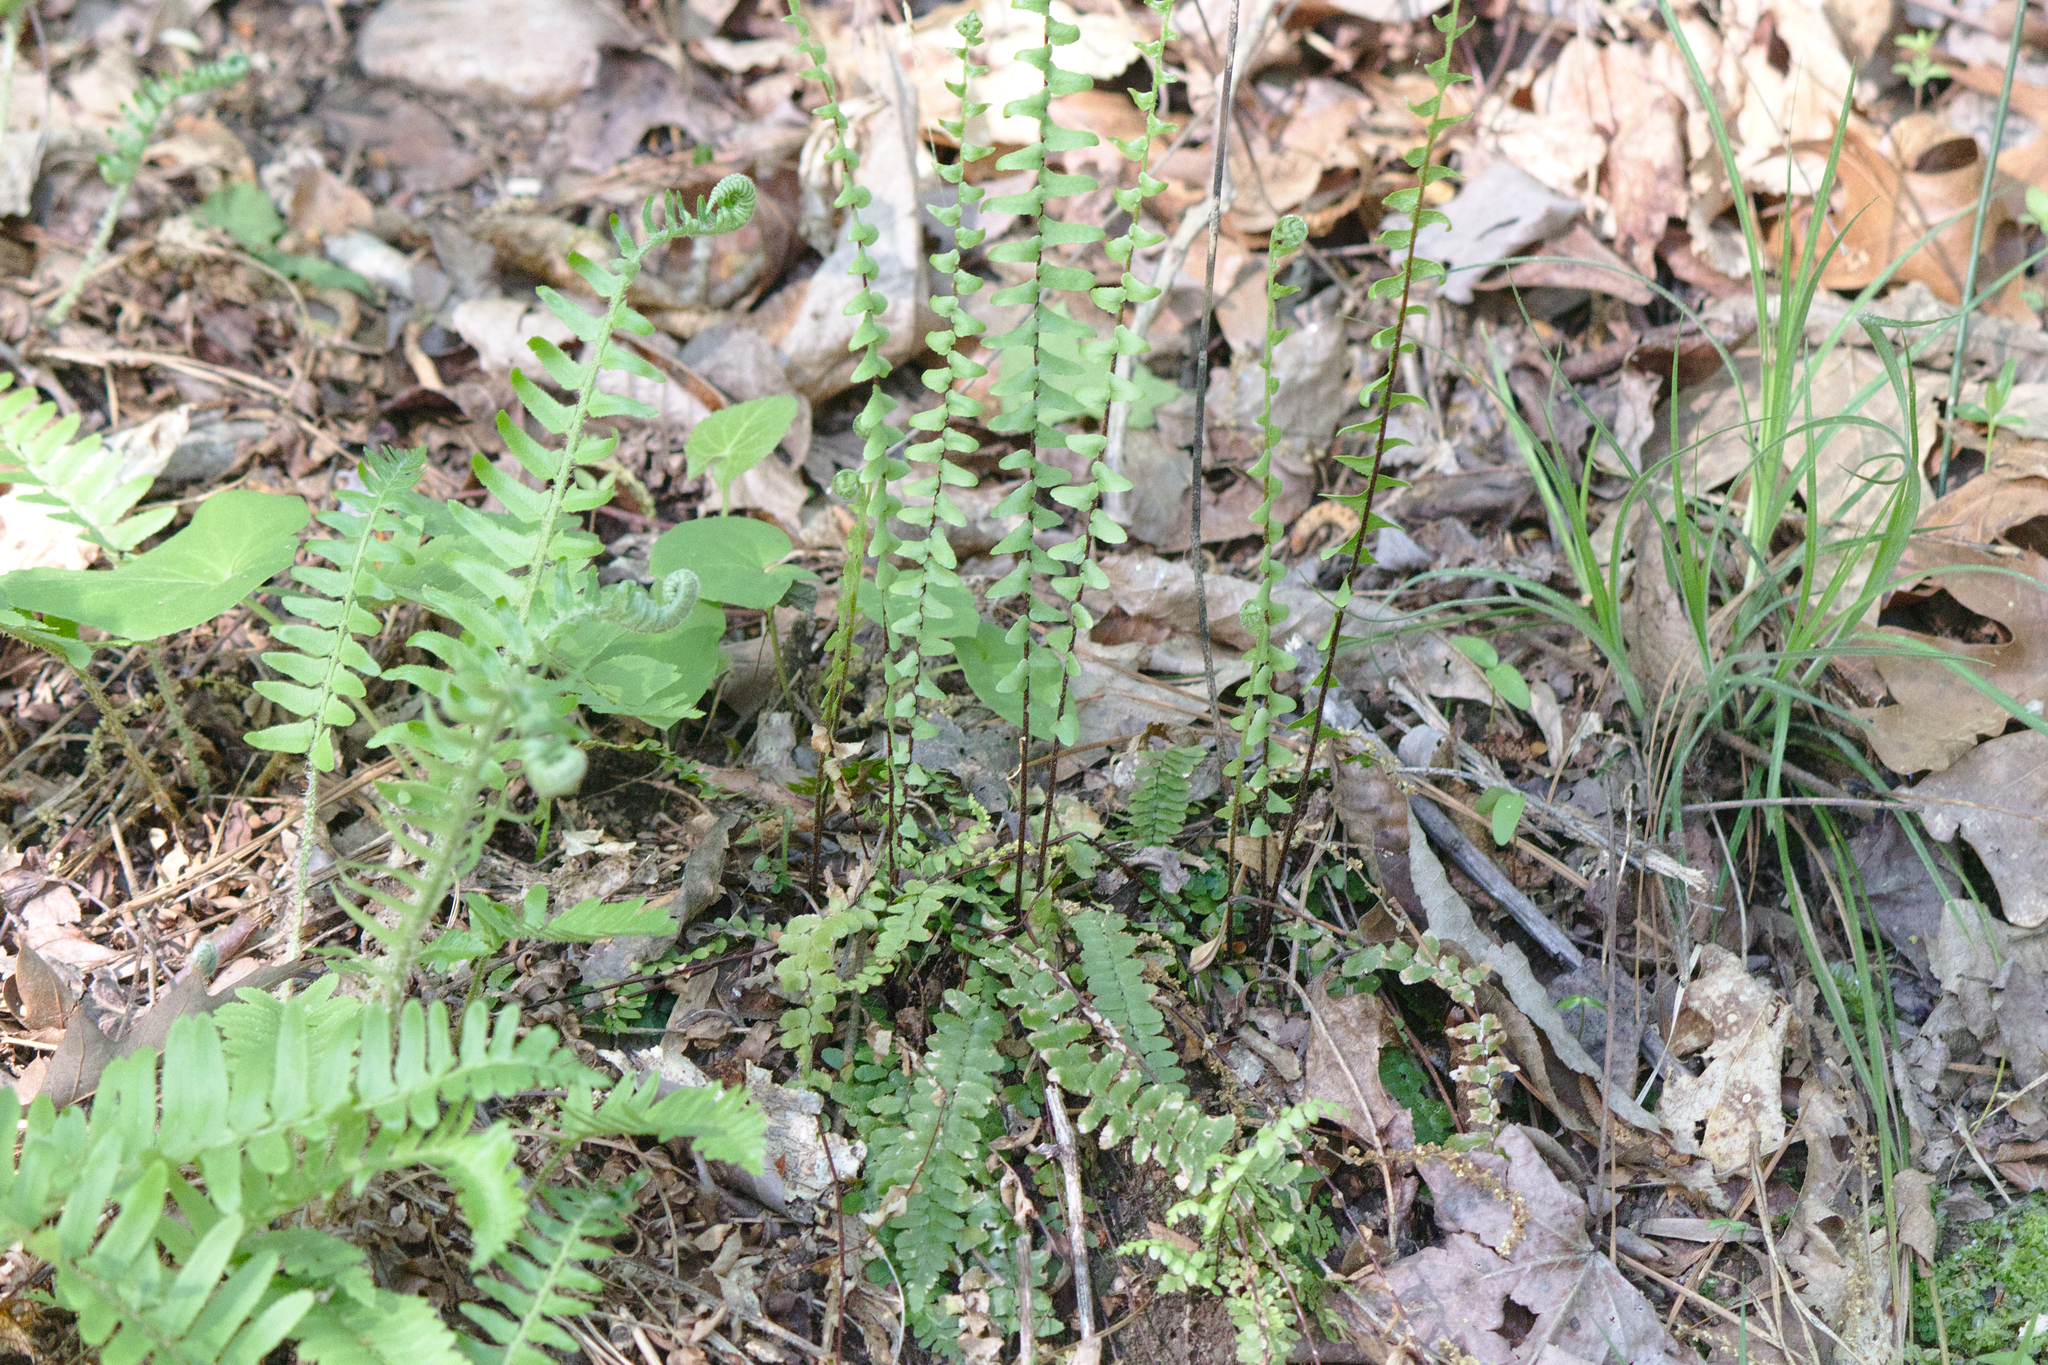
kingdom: Plantae
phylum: Tracheophyta
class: Polypodiopsida
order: Polypodiales
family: Aspleniaceae
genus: Asplenium
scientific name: Asplenium platyneuron
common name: Ebony spleenwort
